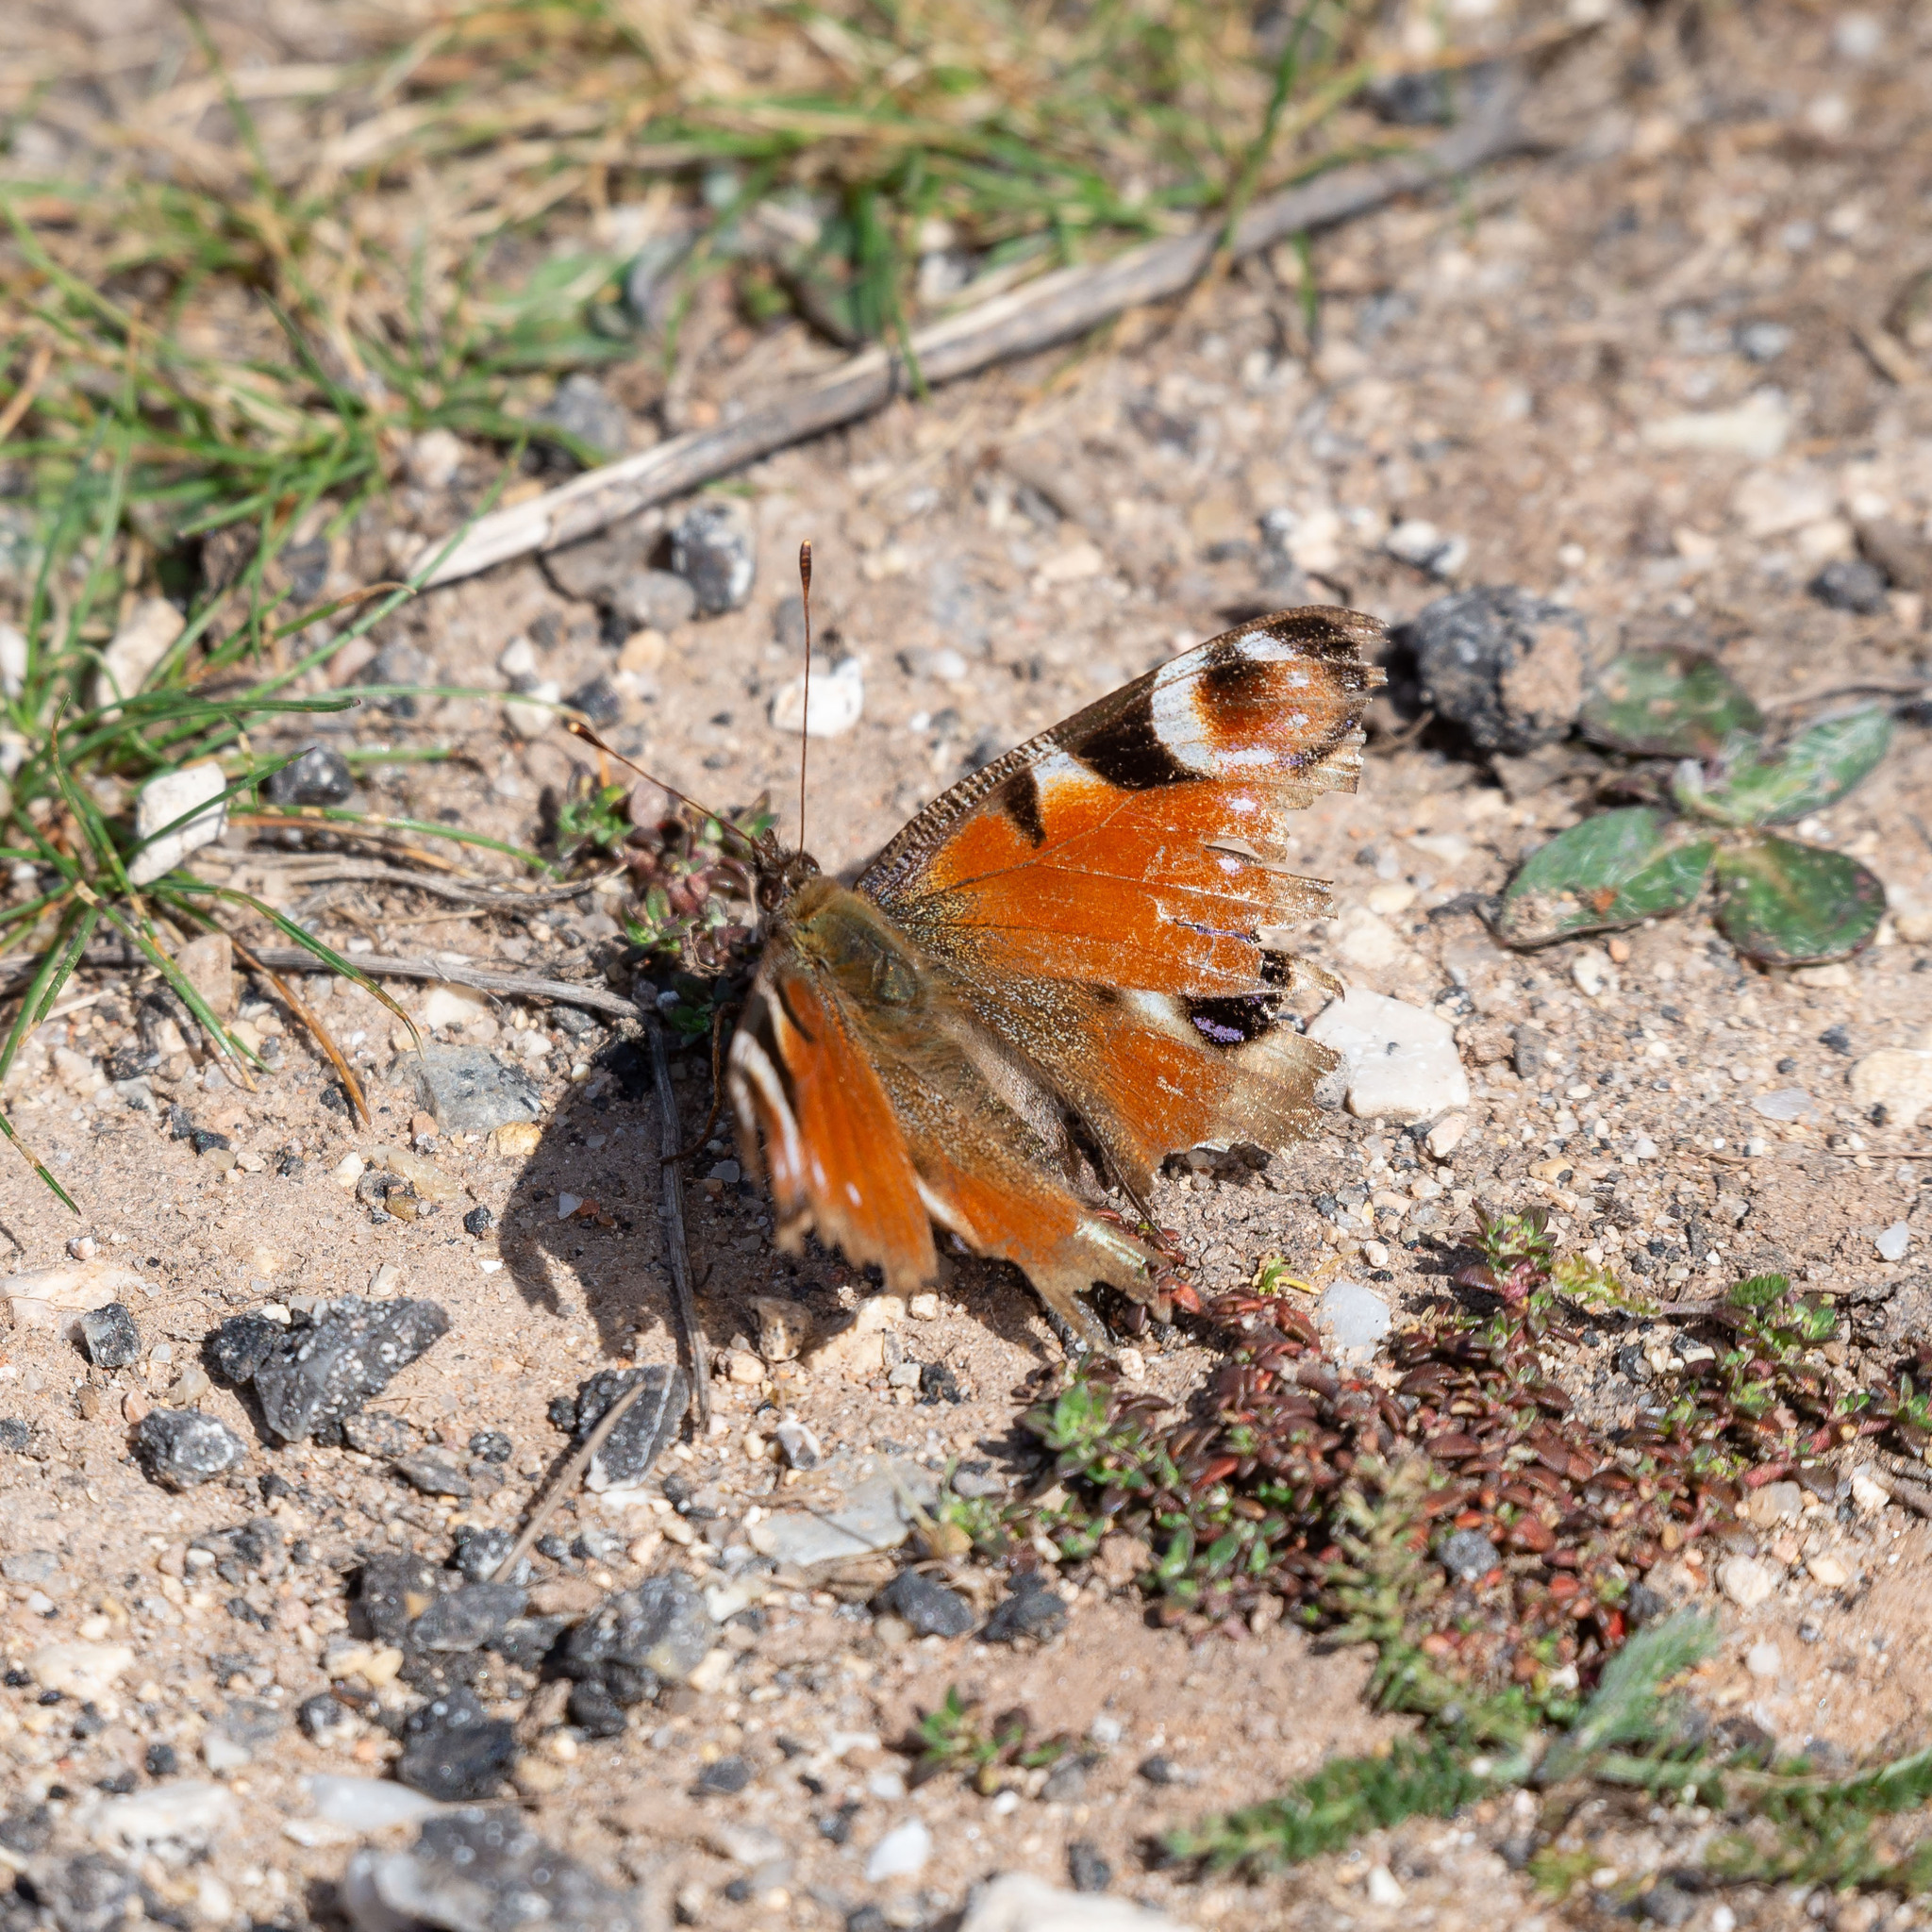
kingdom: Animalia
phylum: Arthropoda
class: Insecta
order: Lepidoptera
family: Nymphalidae
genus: Aglais
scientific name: Aglais io
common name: Peacock
